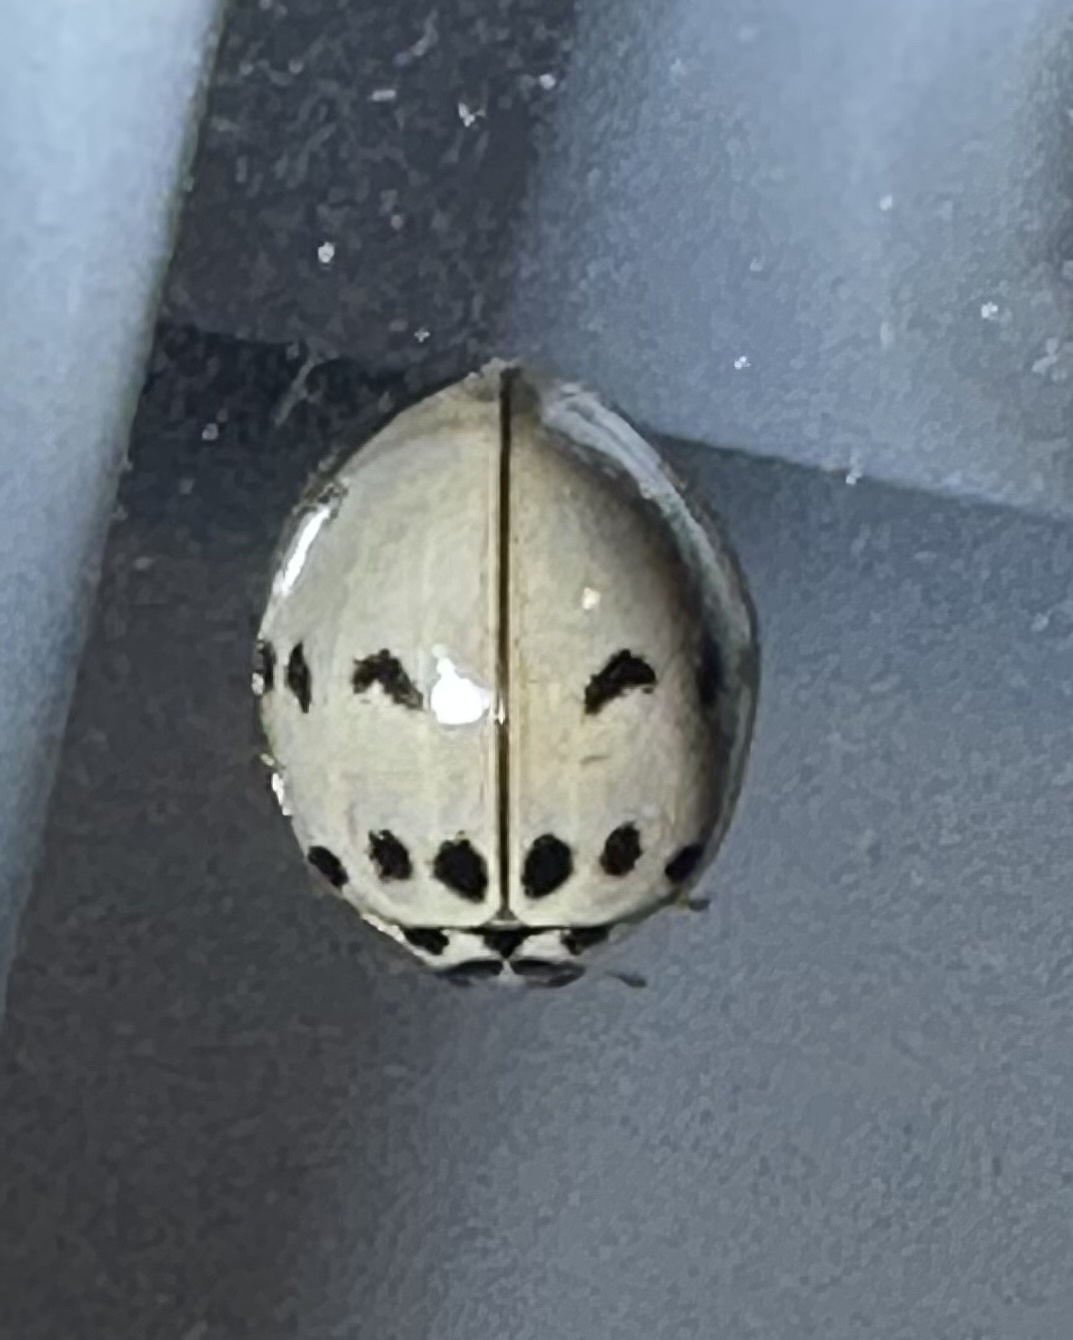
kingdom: Animalia
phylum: Arthropoda
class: Insecta
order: Coleoptera
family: Coccinellidae
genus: Olla
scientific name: Olla v-nigrum
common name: Ashy gray lady beetle
